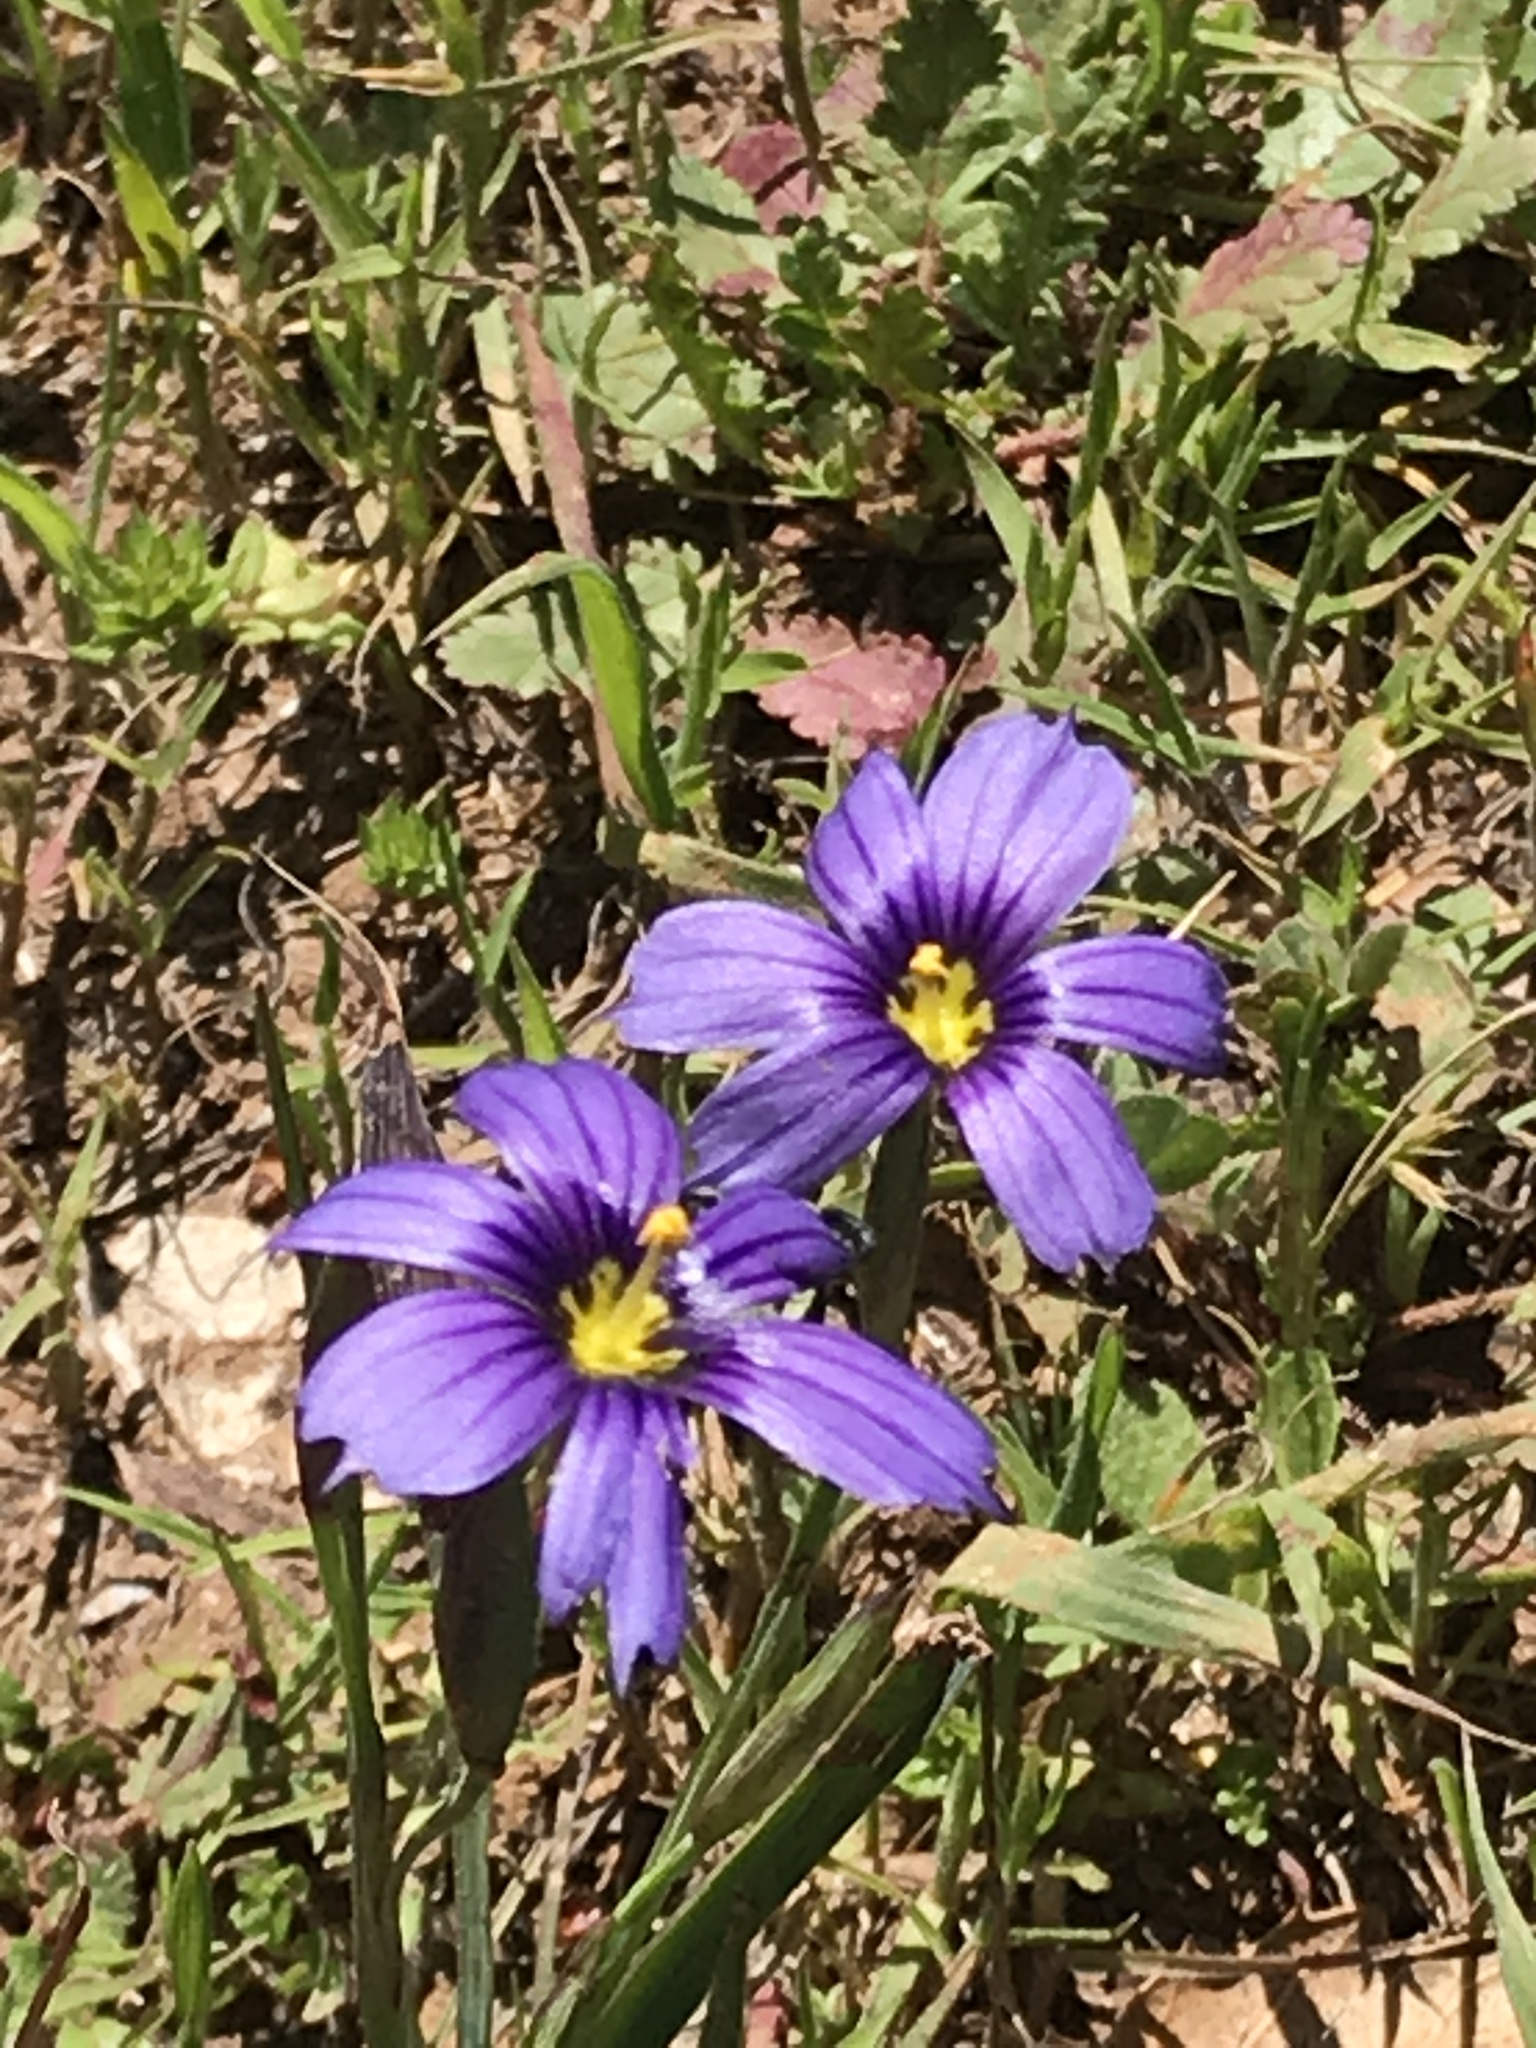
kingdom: Plantae
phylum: Tracheophyta
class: Liliopsida
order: Asparagales
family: Iridaceae
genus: Sisyrinchium
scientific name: Sisyrinchium bellum
